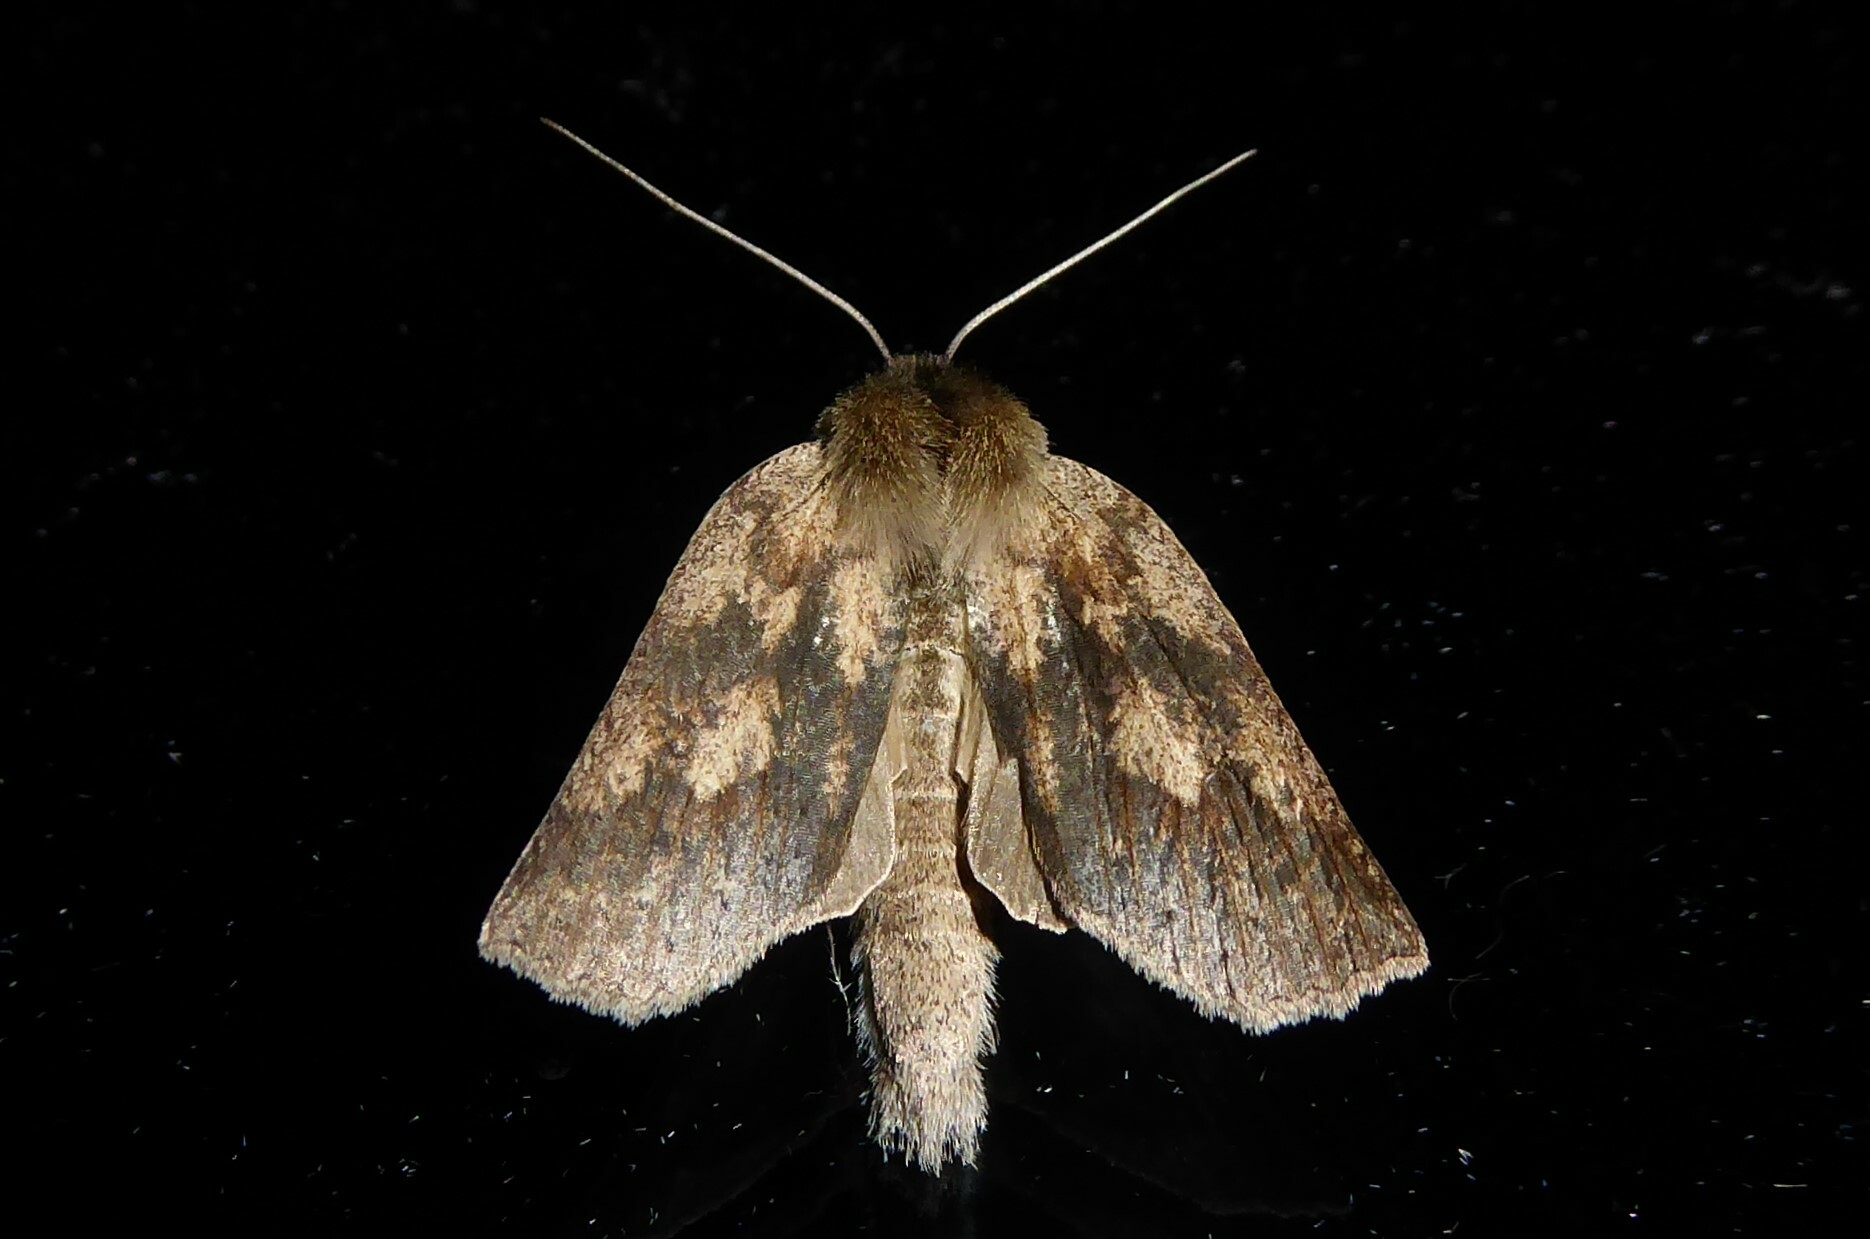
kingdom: Animalia
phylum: Arthropoda
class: Insecta
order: Lepidoptera
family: Geometridae
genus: Declana
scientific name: Declana leptomera
